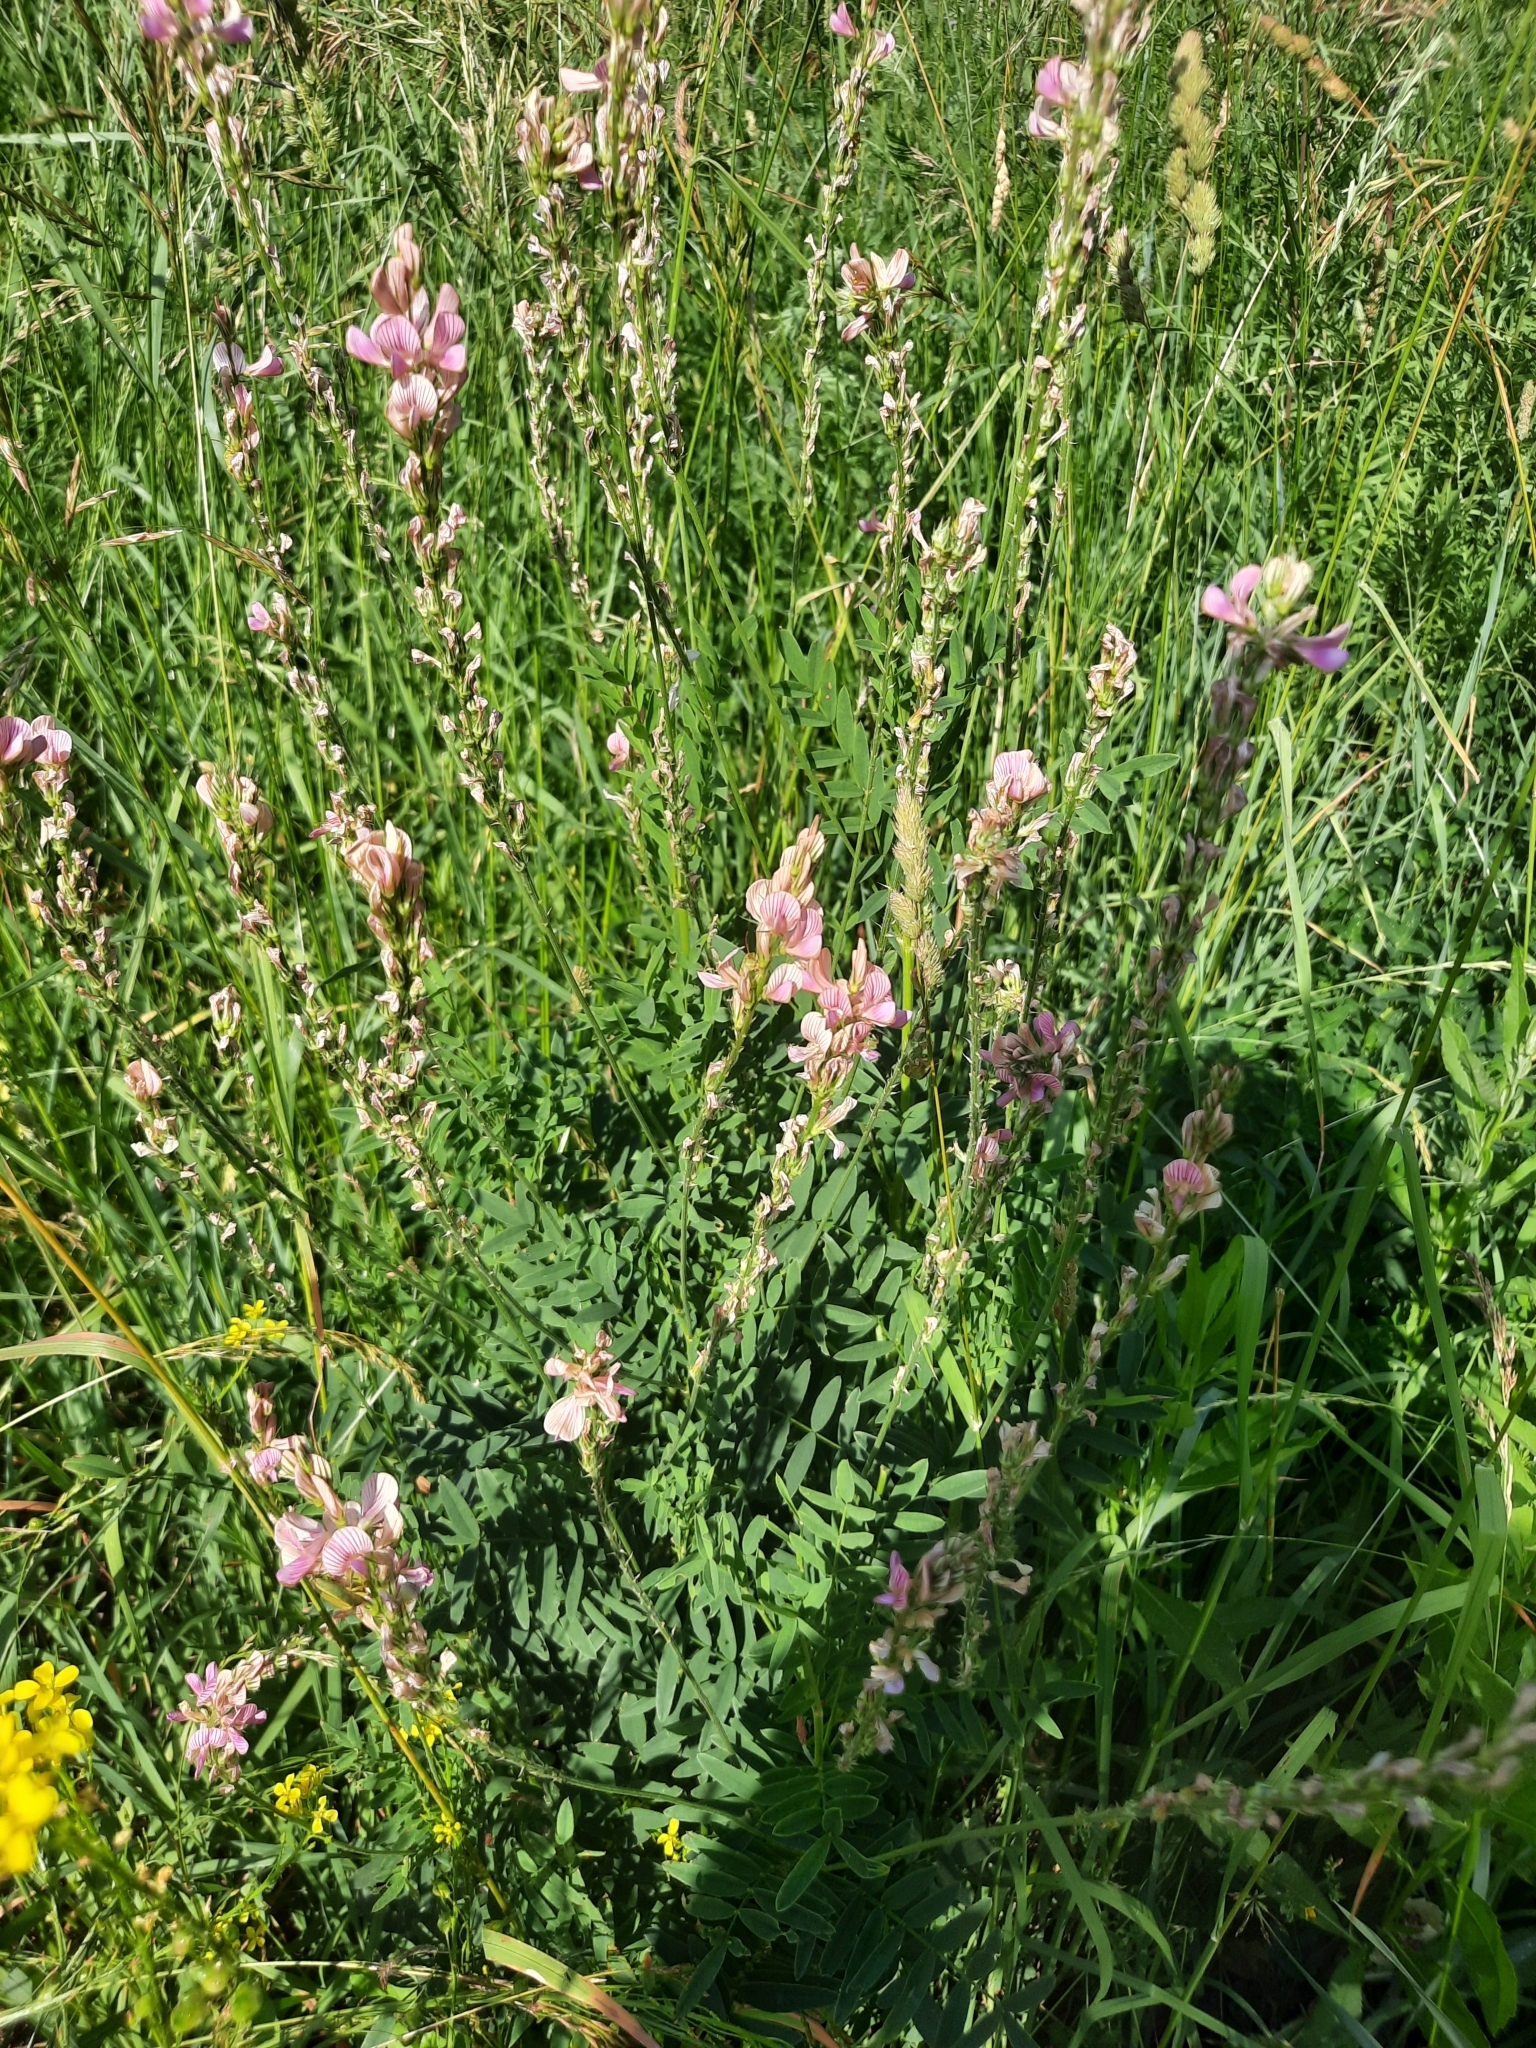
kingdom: Plantae
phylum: Tracheophyta
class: Magnoliopsida
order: Fabales
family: Fabaceae
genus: Onobrychis
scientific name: Onobrychis viciifolia
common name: Sainfoin
